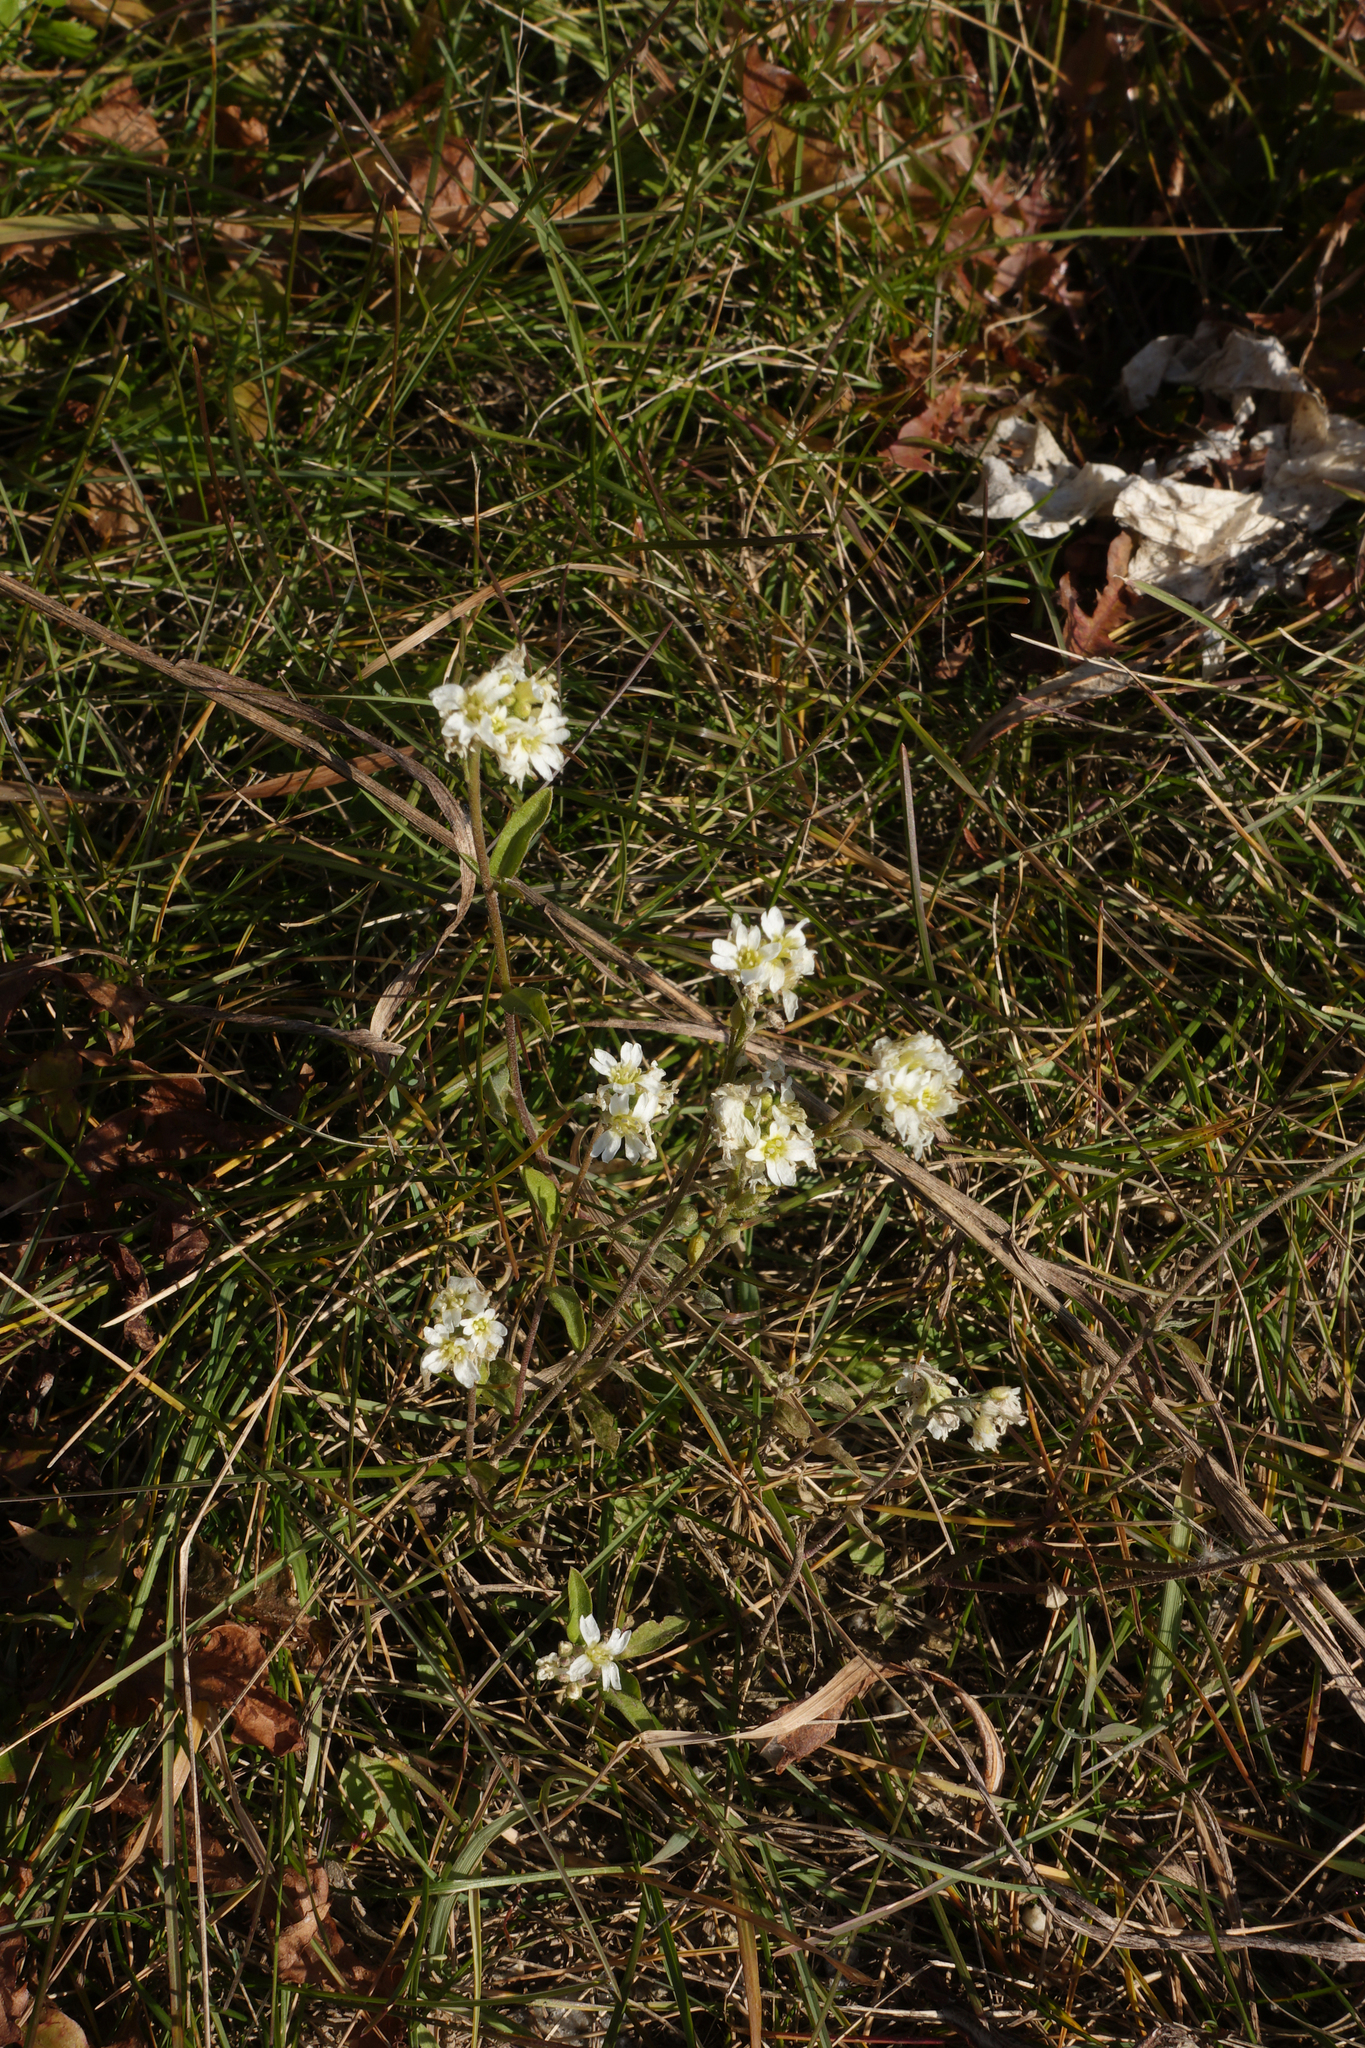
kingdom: Plantae
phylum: Tracheophyta
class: Magnoliopsida
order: Brassicales
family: Brassicaceae
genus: Berteroa
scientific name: Berteroa incana
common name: Hoary alison
